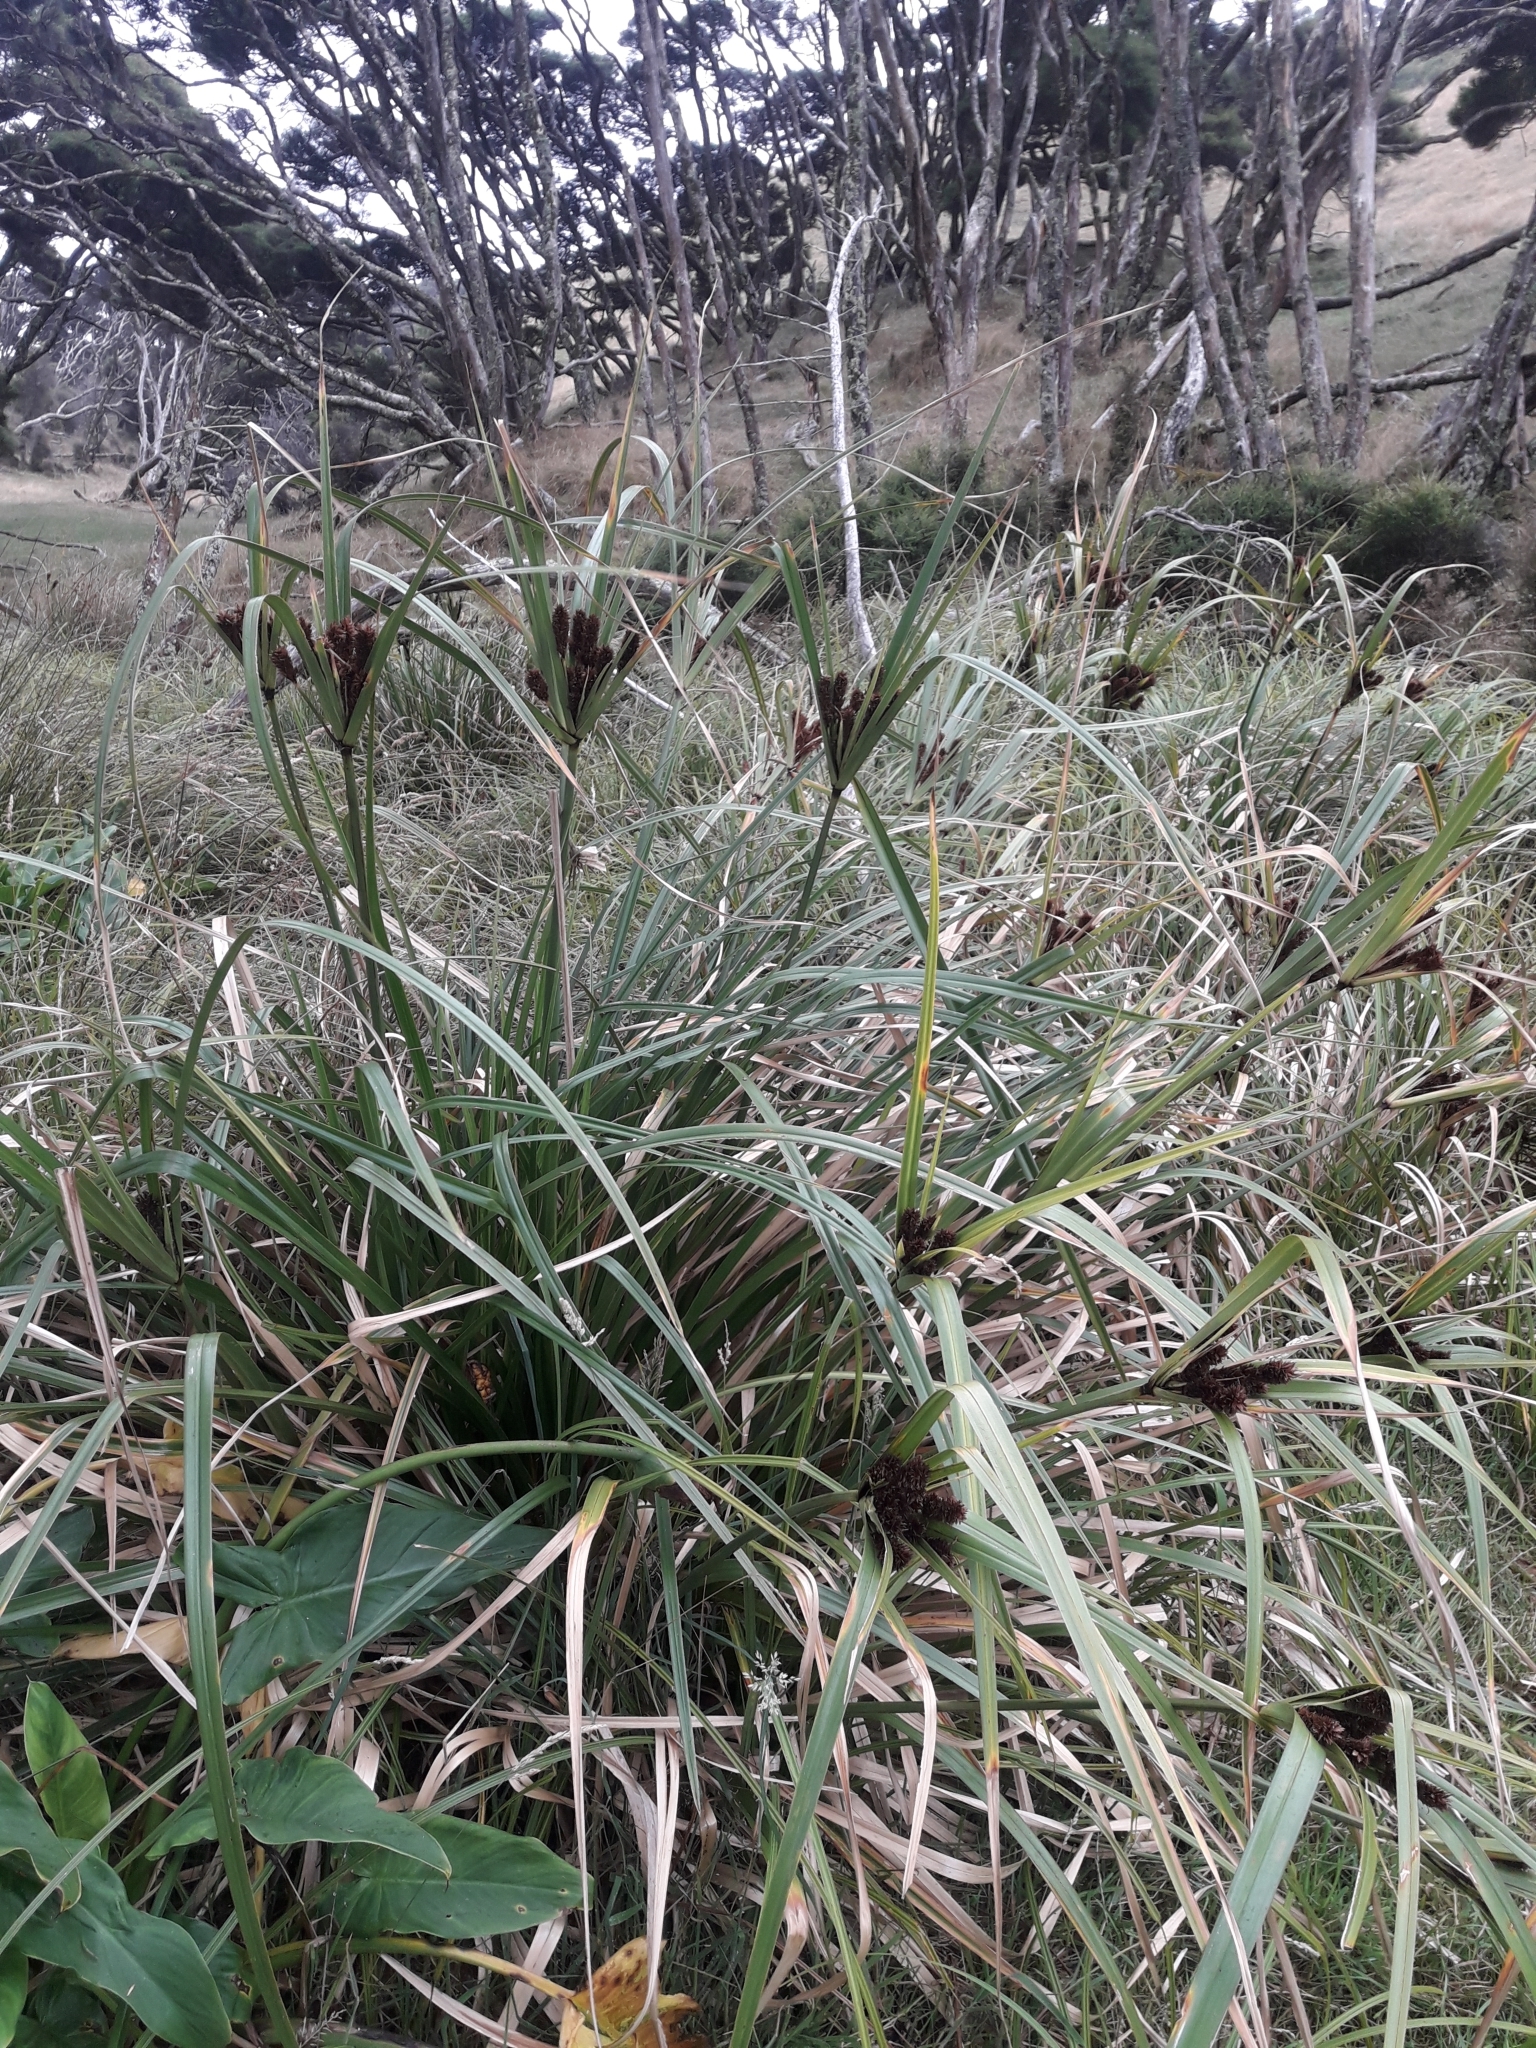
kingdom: Plantae
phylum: Tracheophyta
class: Liliopsida
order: Poales
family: Cyperaceae
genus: Cyperus
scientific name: Cyperus ustulatus
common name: Giant umbrella-sedge
